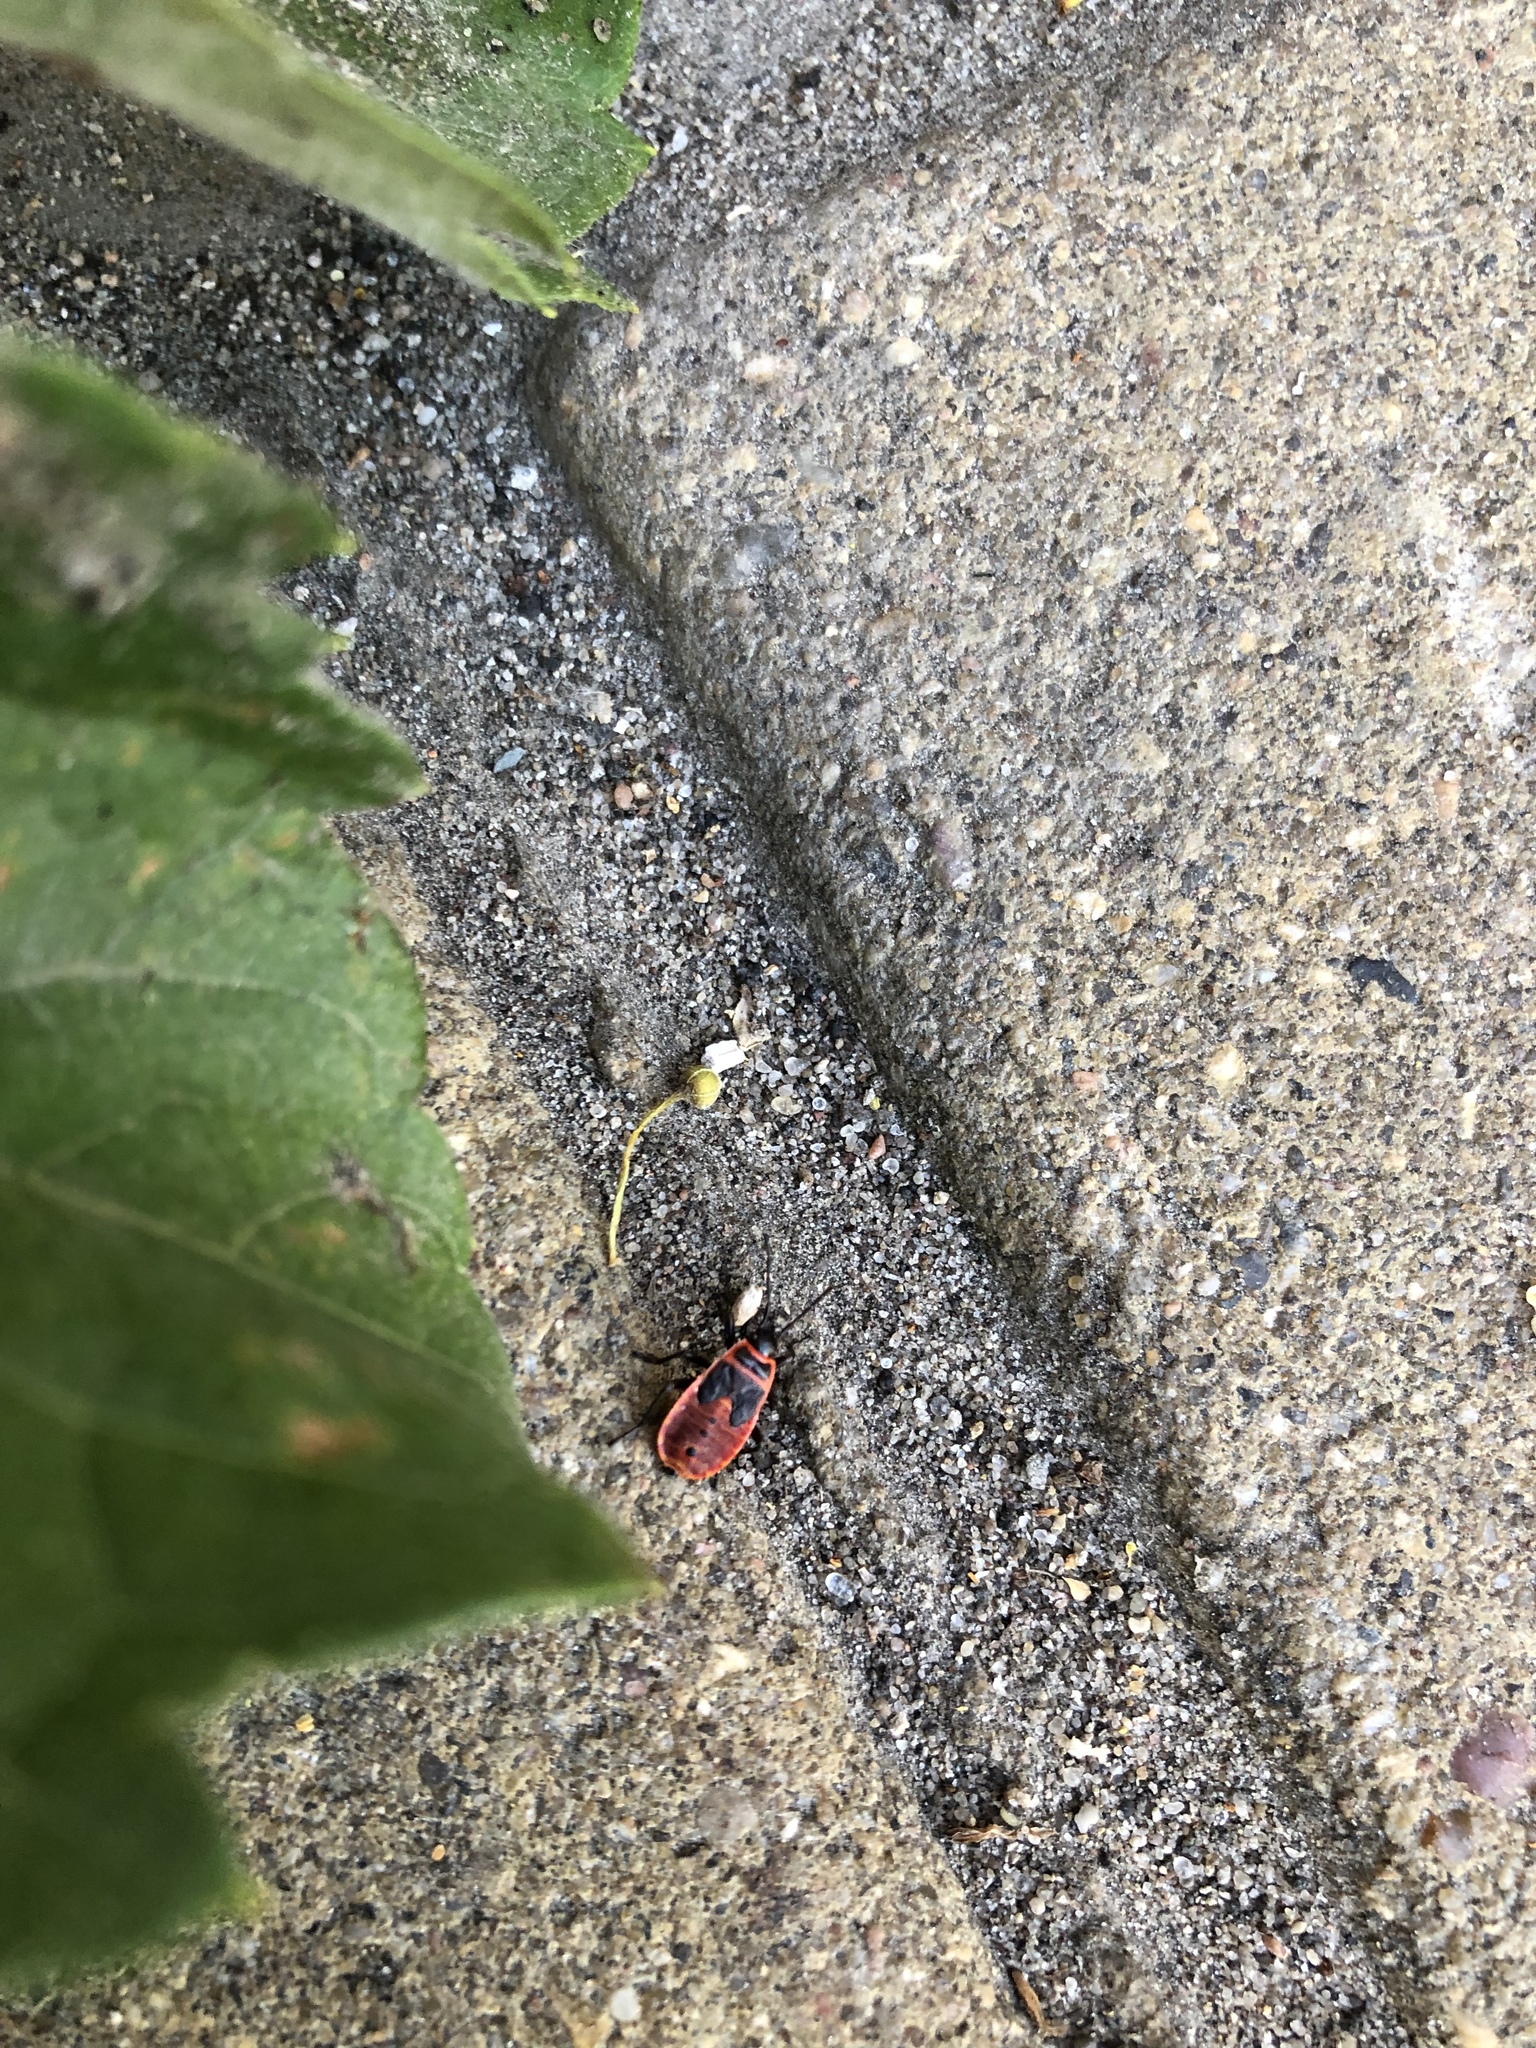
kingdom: Animalia
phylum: Arthropoda
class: Insecta
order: Hemiptera
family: Pyrrhocoridae
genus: Pyrrhocoris
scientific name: Pyrrhocoris apterus
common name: Firebug
